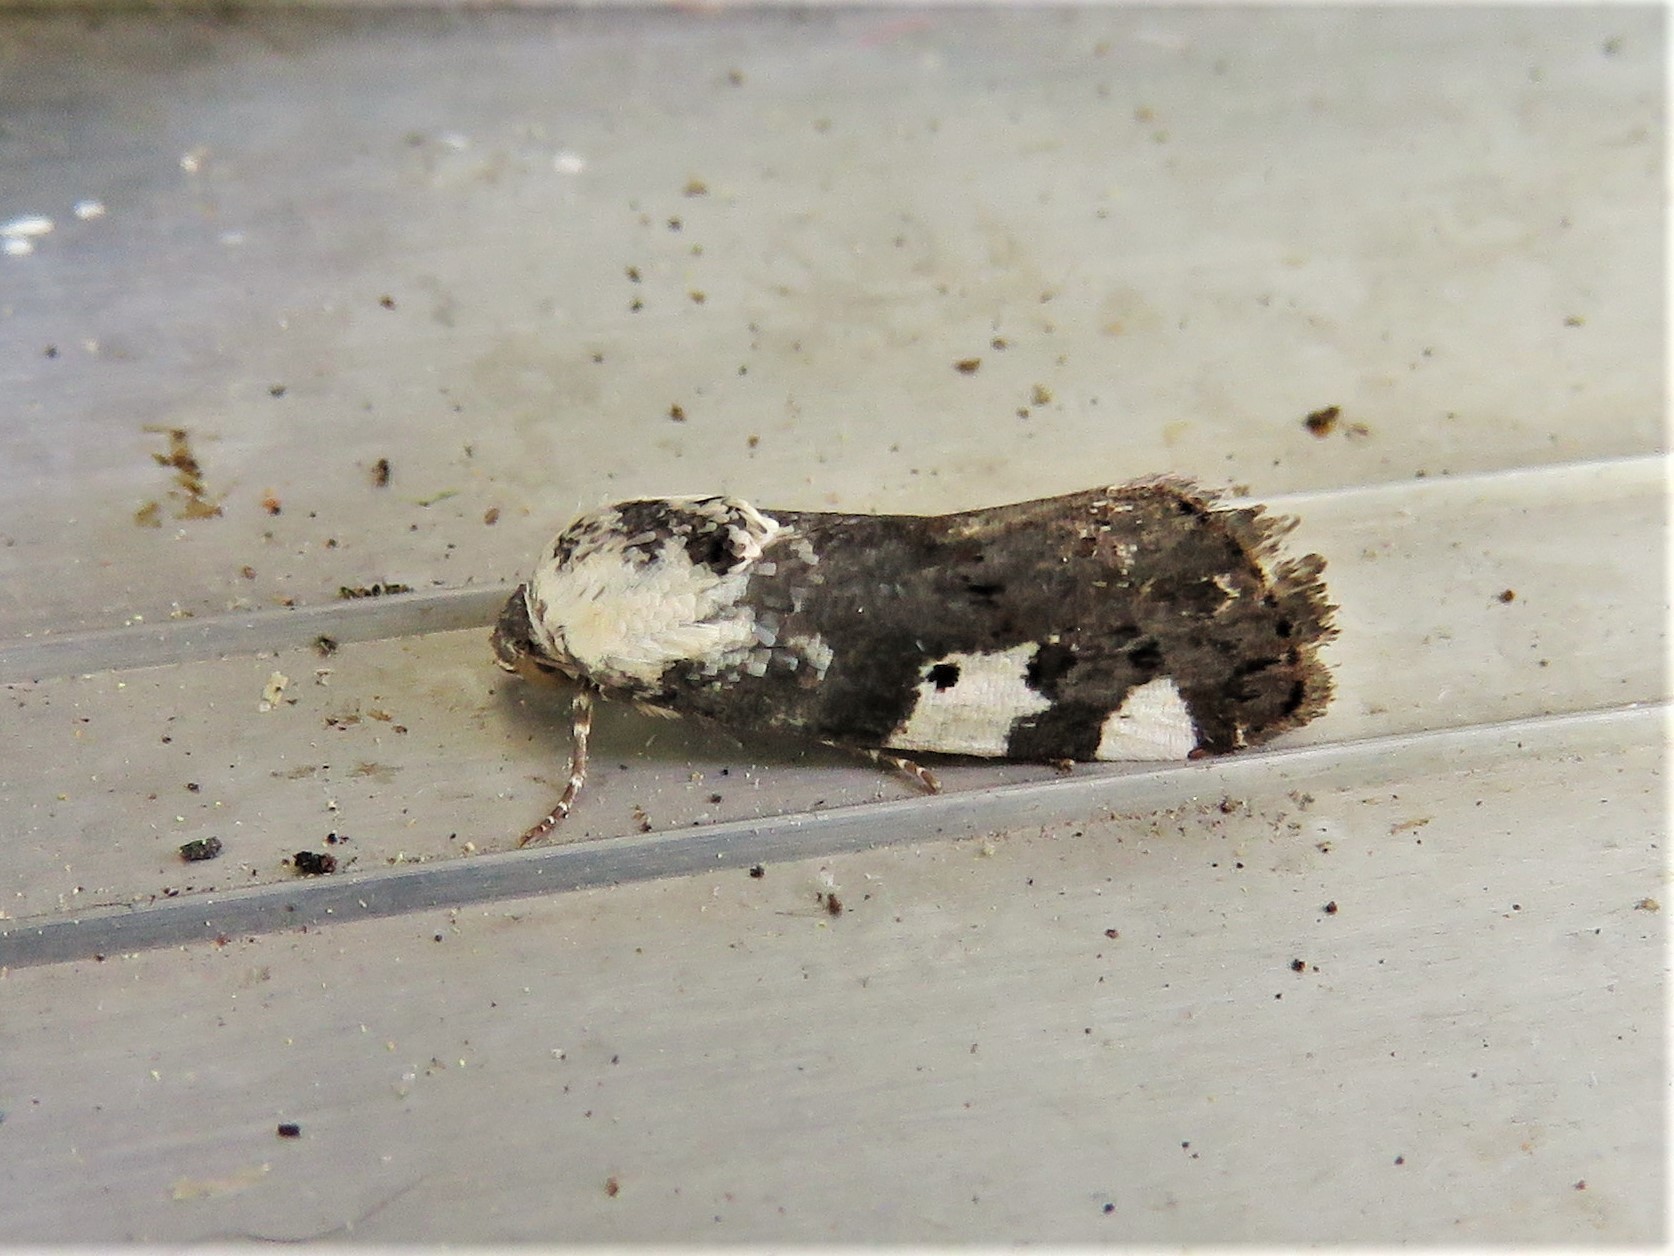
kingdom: Animalia
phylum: Arthropoda
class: Insecta
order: Lepidoptera
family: Noctuidae
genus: Acontia
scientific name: Acontia aprica
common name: Nun
